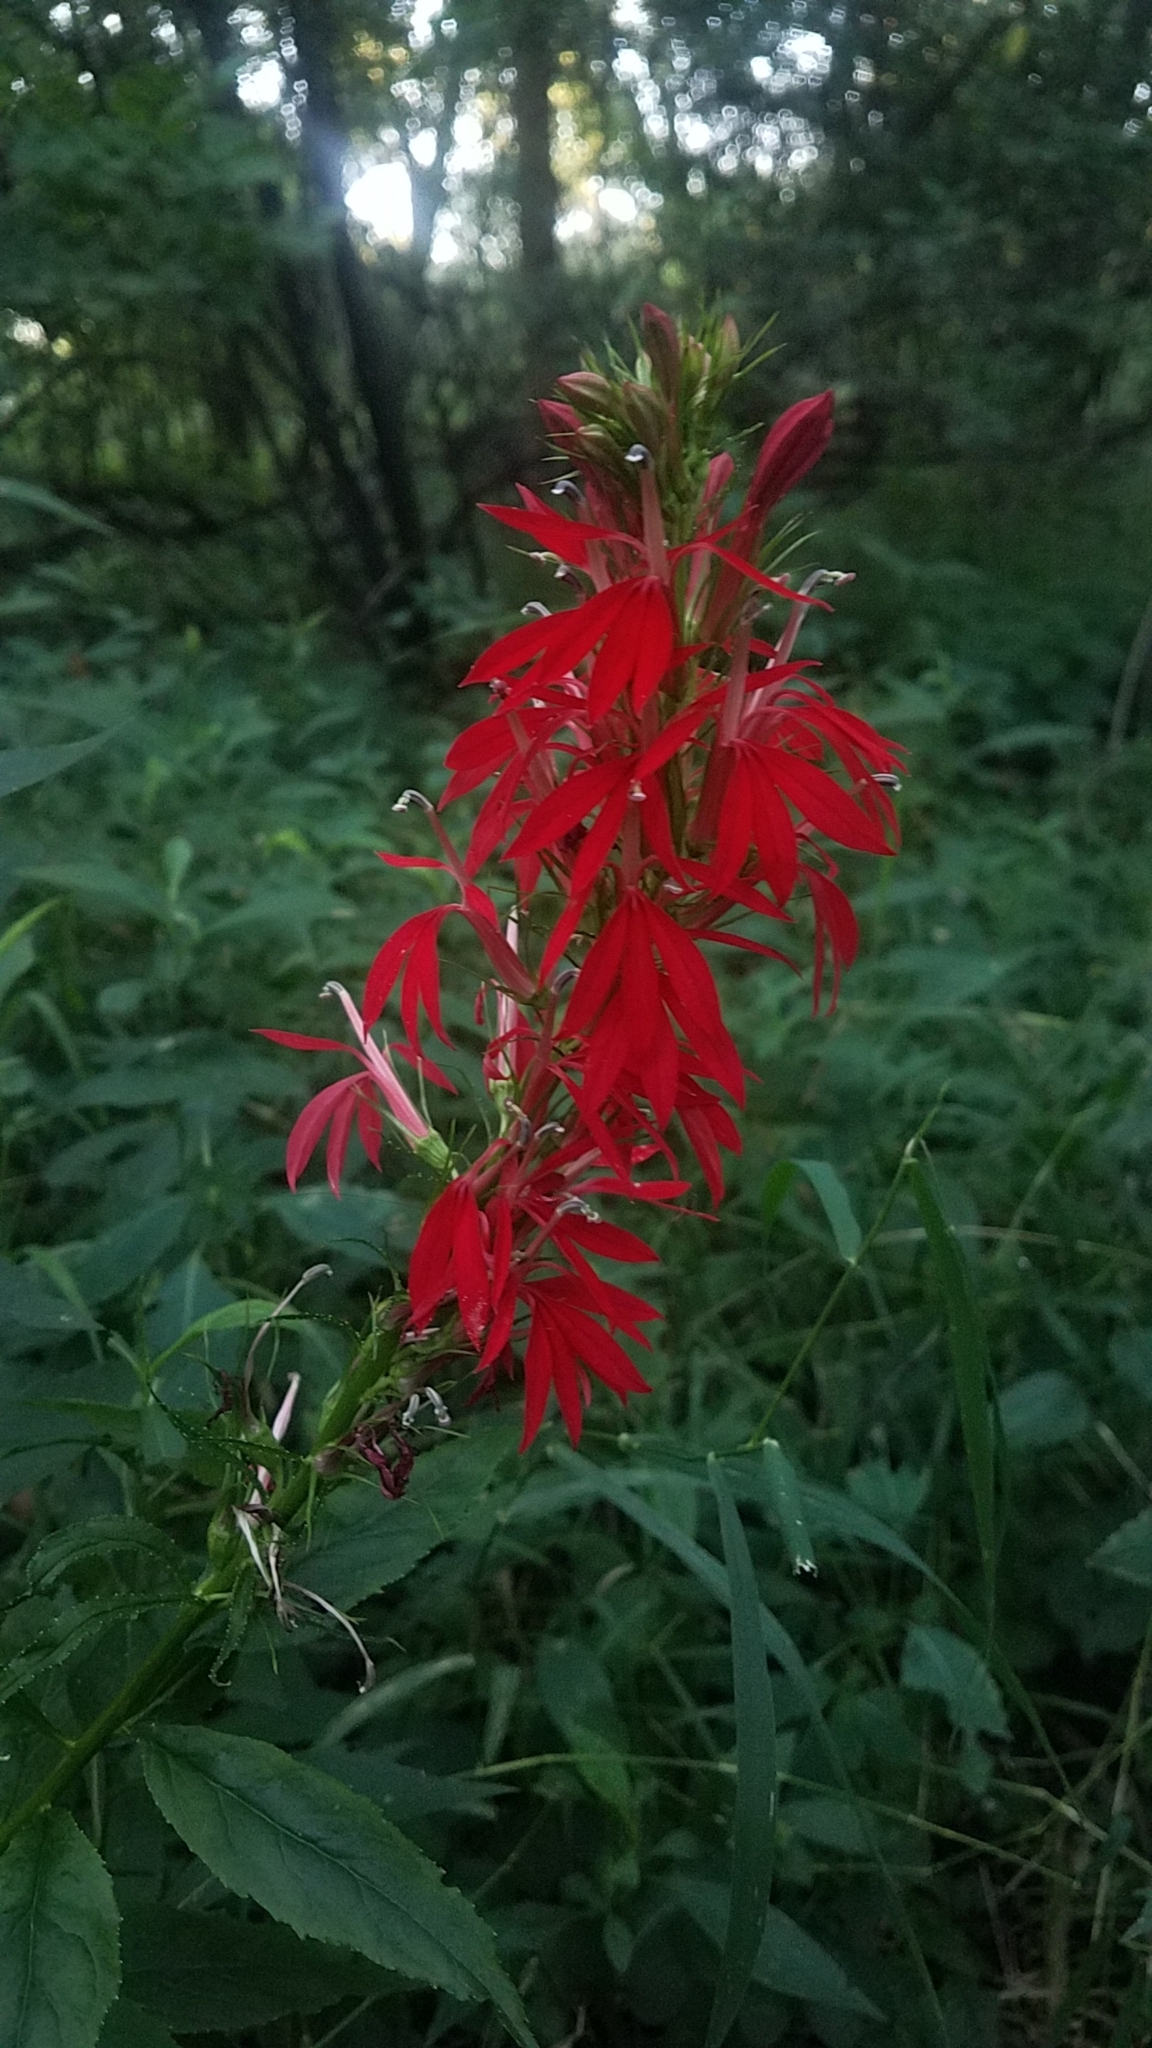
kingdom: Plantae
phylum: Tracheophyta
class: Magnoliopsida
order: Asterales
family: Campanulaceae
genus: Lobelia
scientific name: Lobelia cardinalis
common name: Cardinal flower
